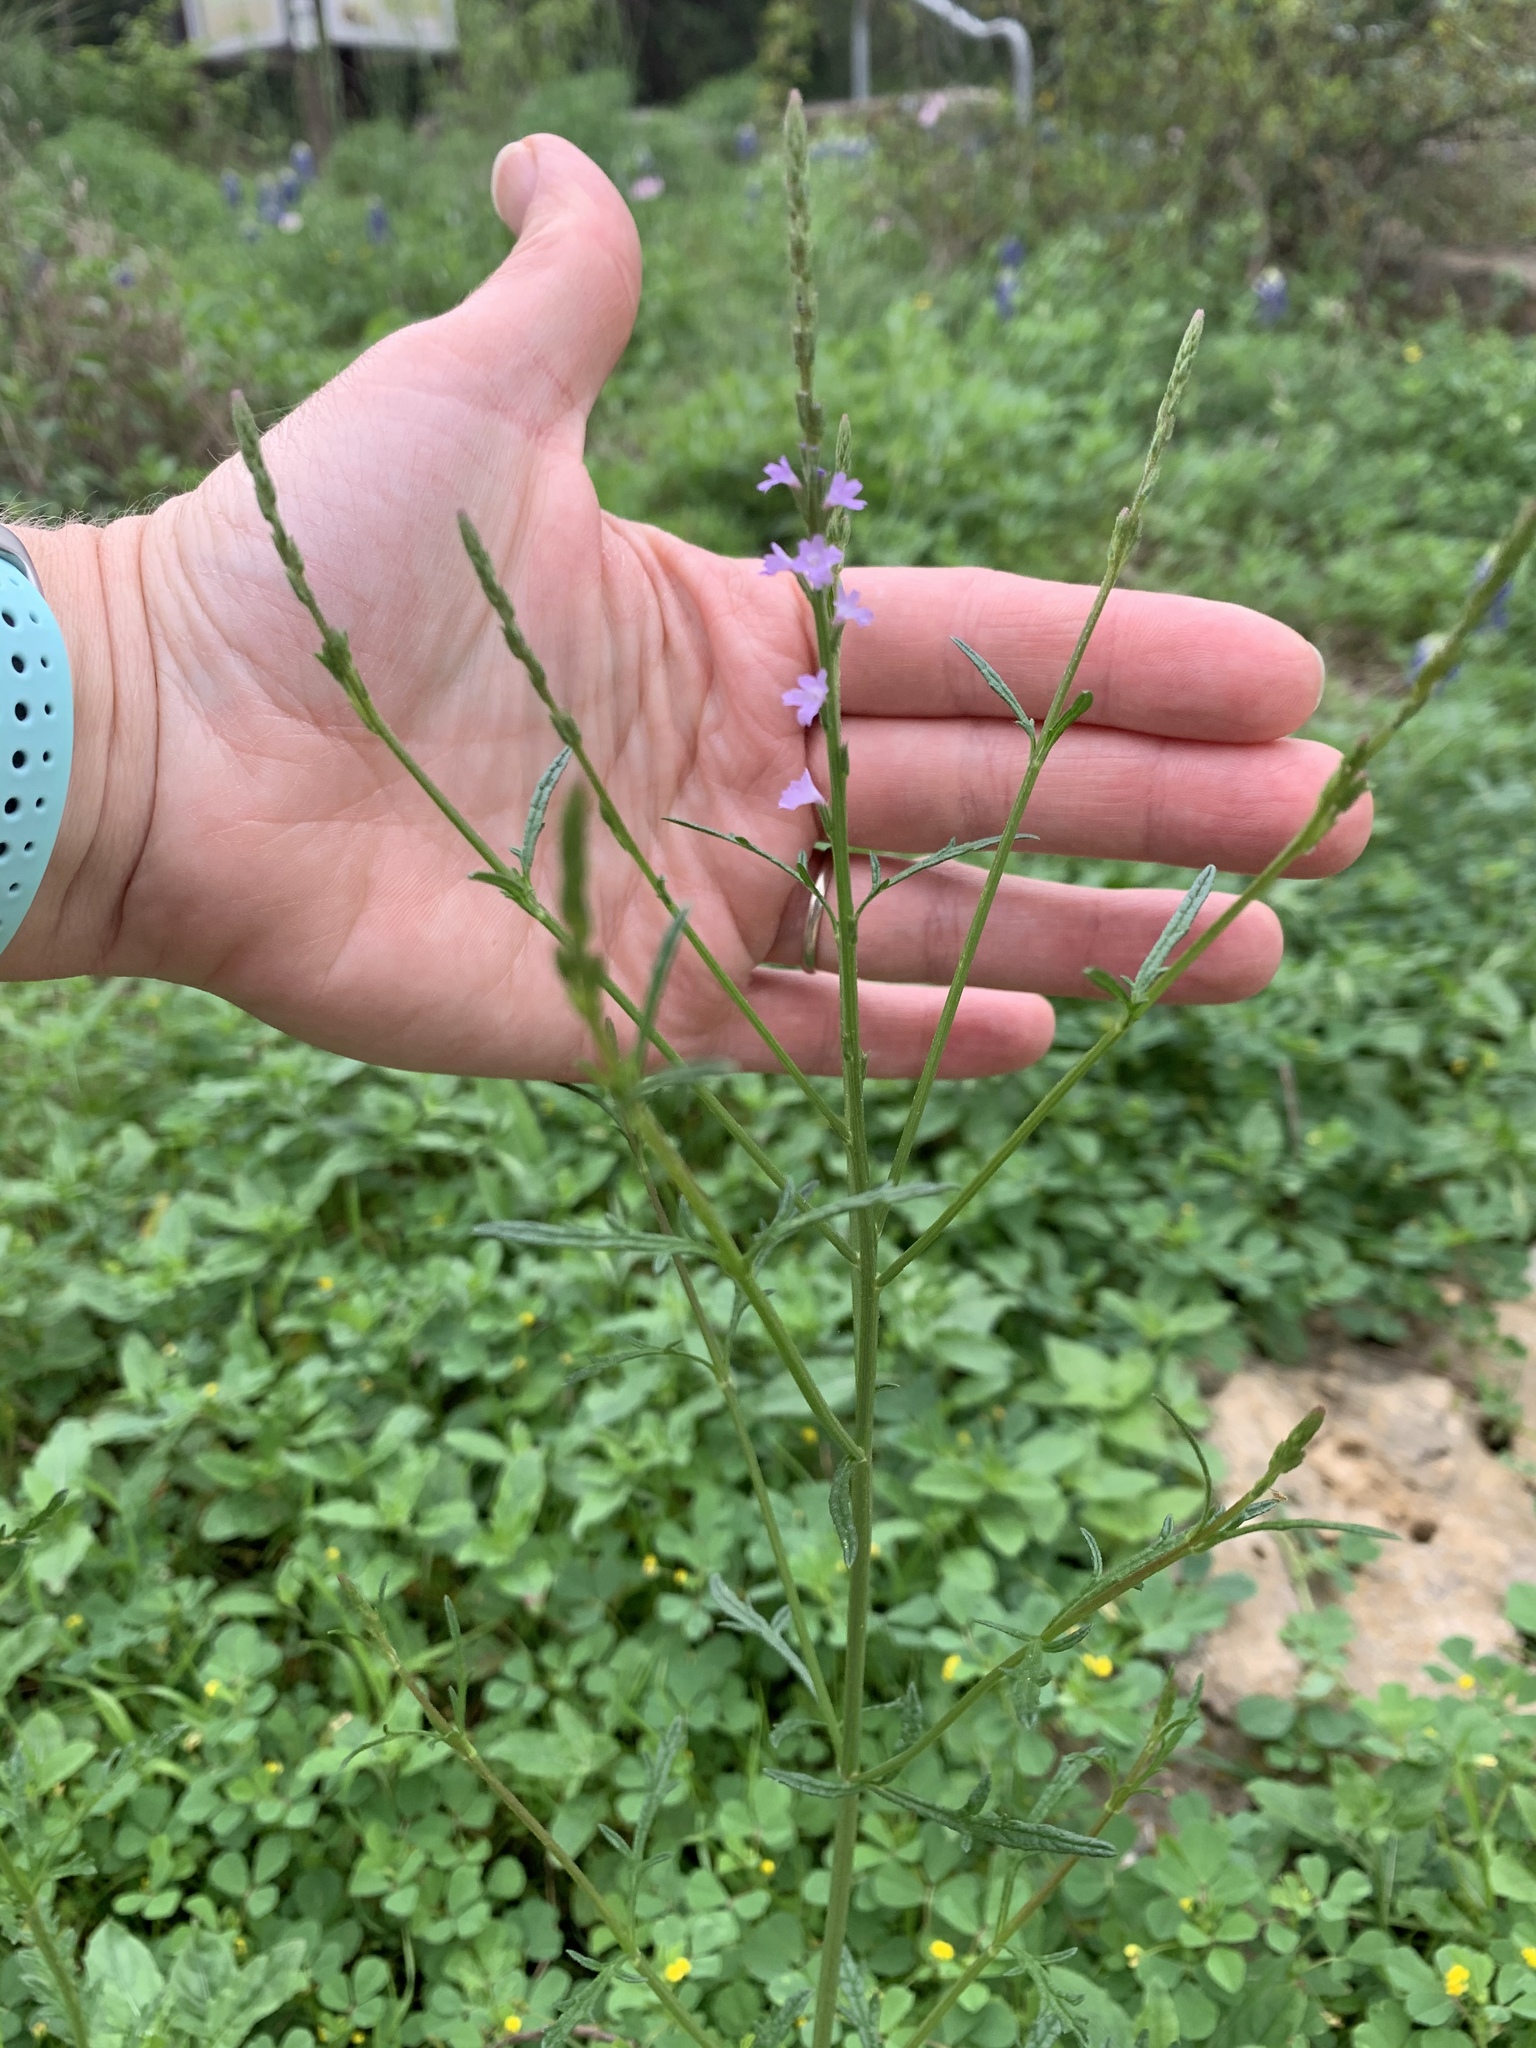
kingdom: Plantae
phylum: Tracheophyta
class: Magnoliopsida
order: Lamiales
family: Verbenaceae
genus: Verbena
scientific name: Verbena halei
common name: Texas vervain
